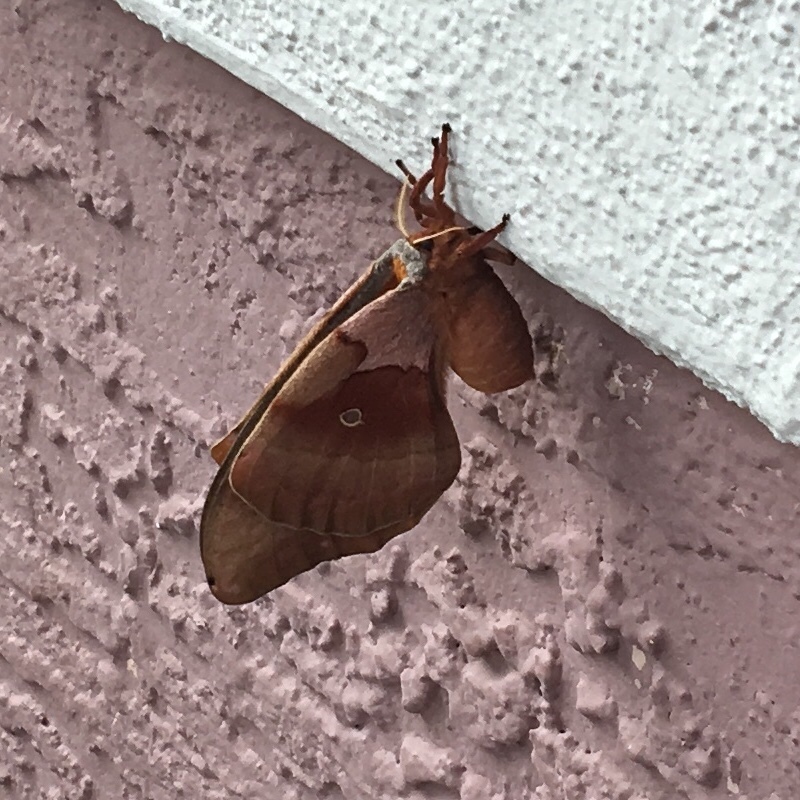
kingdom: Animalia
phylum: Arthropoda
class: Insecta
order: Lepidoptera
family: Saturniidae
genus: Antheraea
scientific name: Antheraea polyphemus
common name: Polyphemus moth
